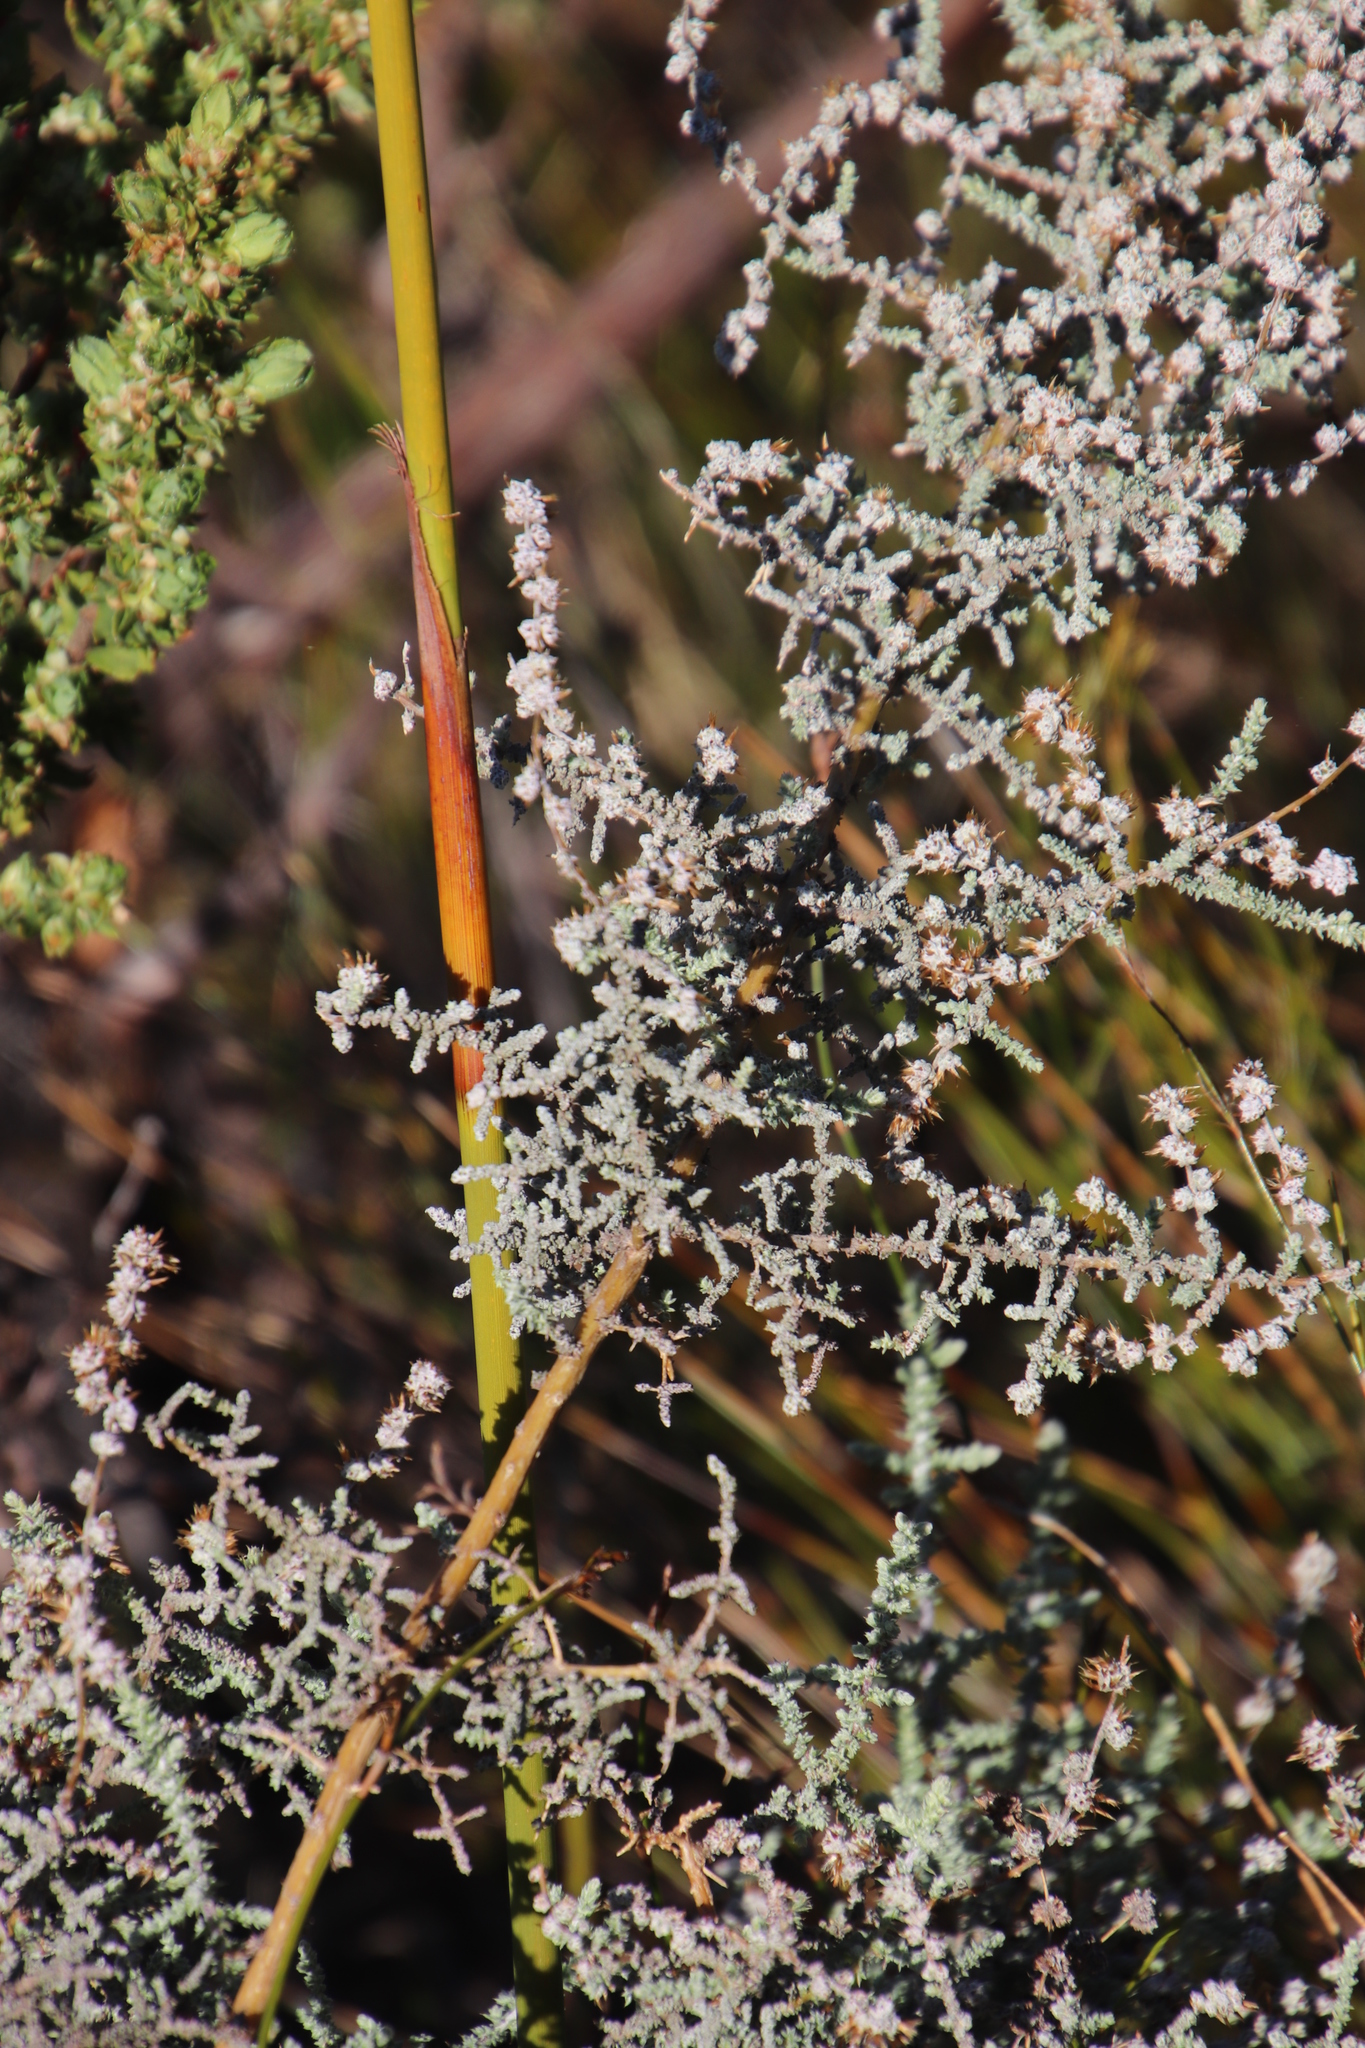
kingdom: Plantae
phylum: Tracheophyta
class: Magnoliopsida
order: Asterales
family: Asteraceae
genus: Seriphium
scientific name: Seriphium plumosum
